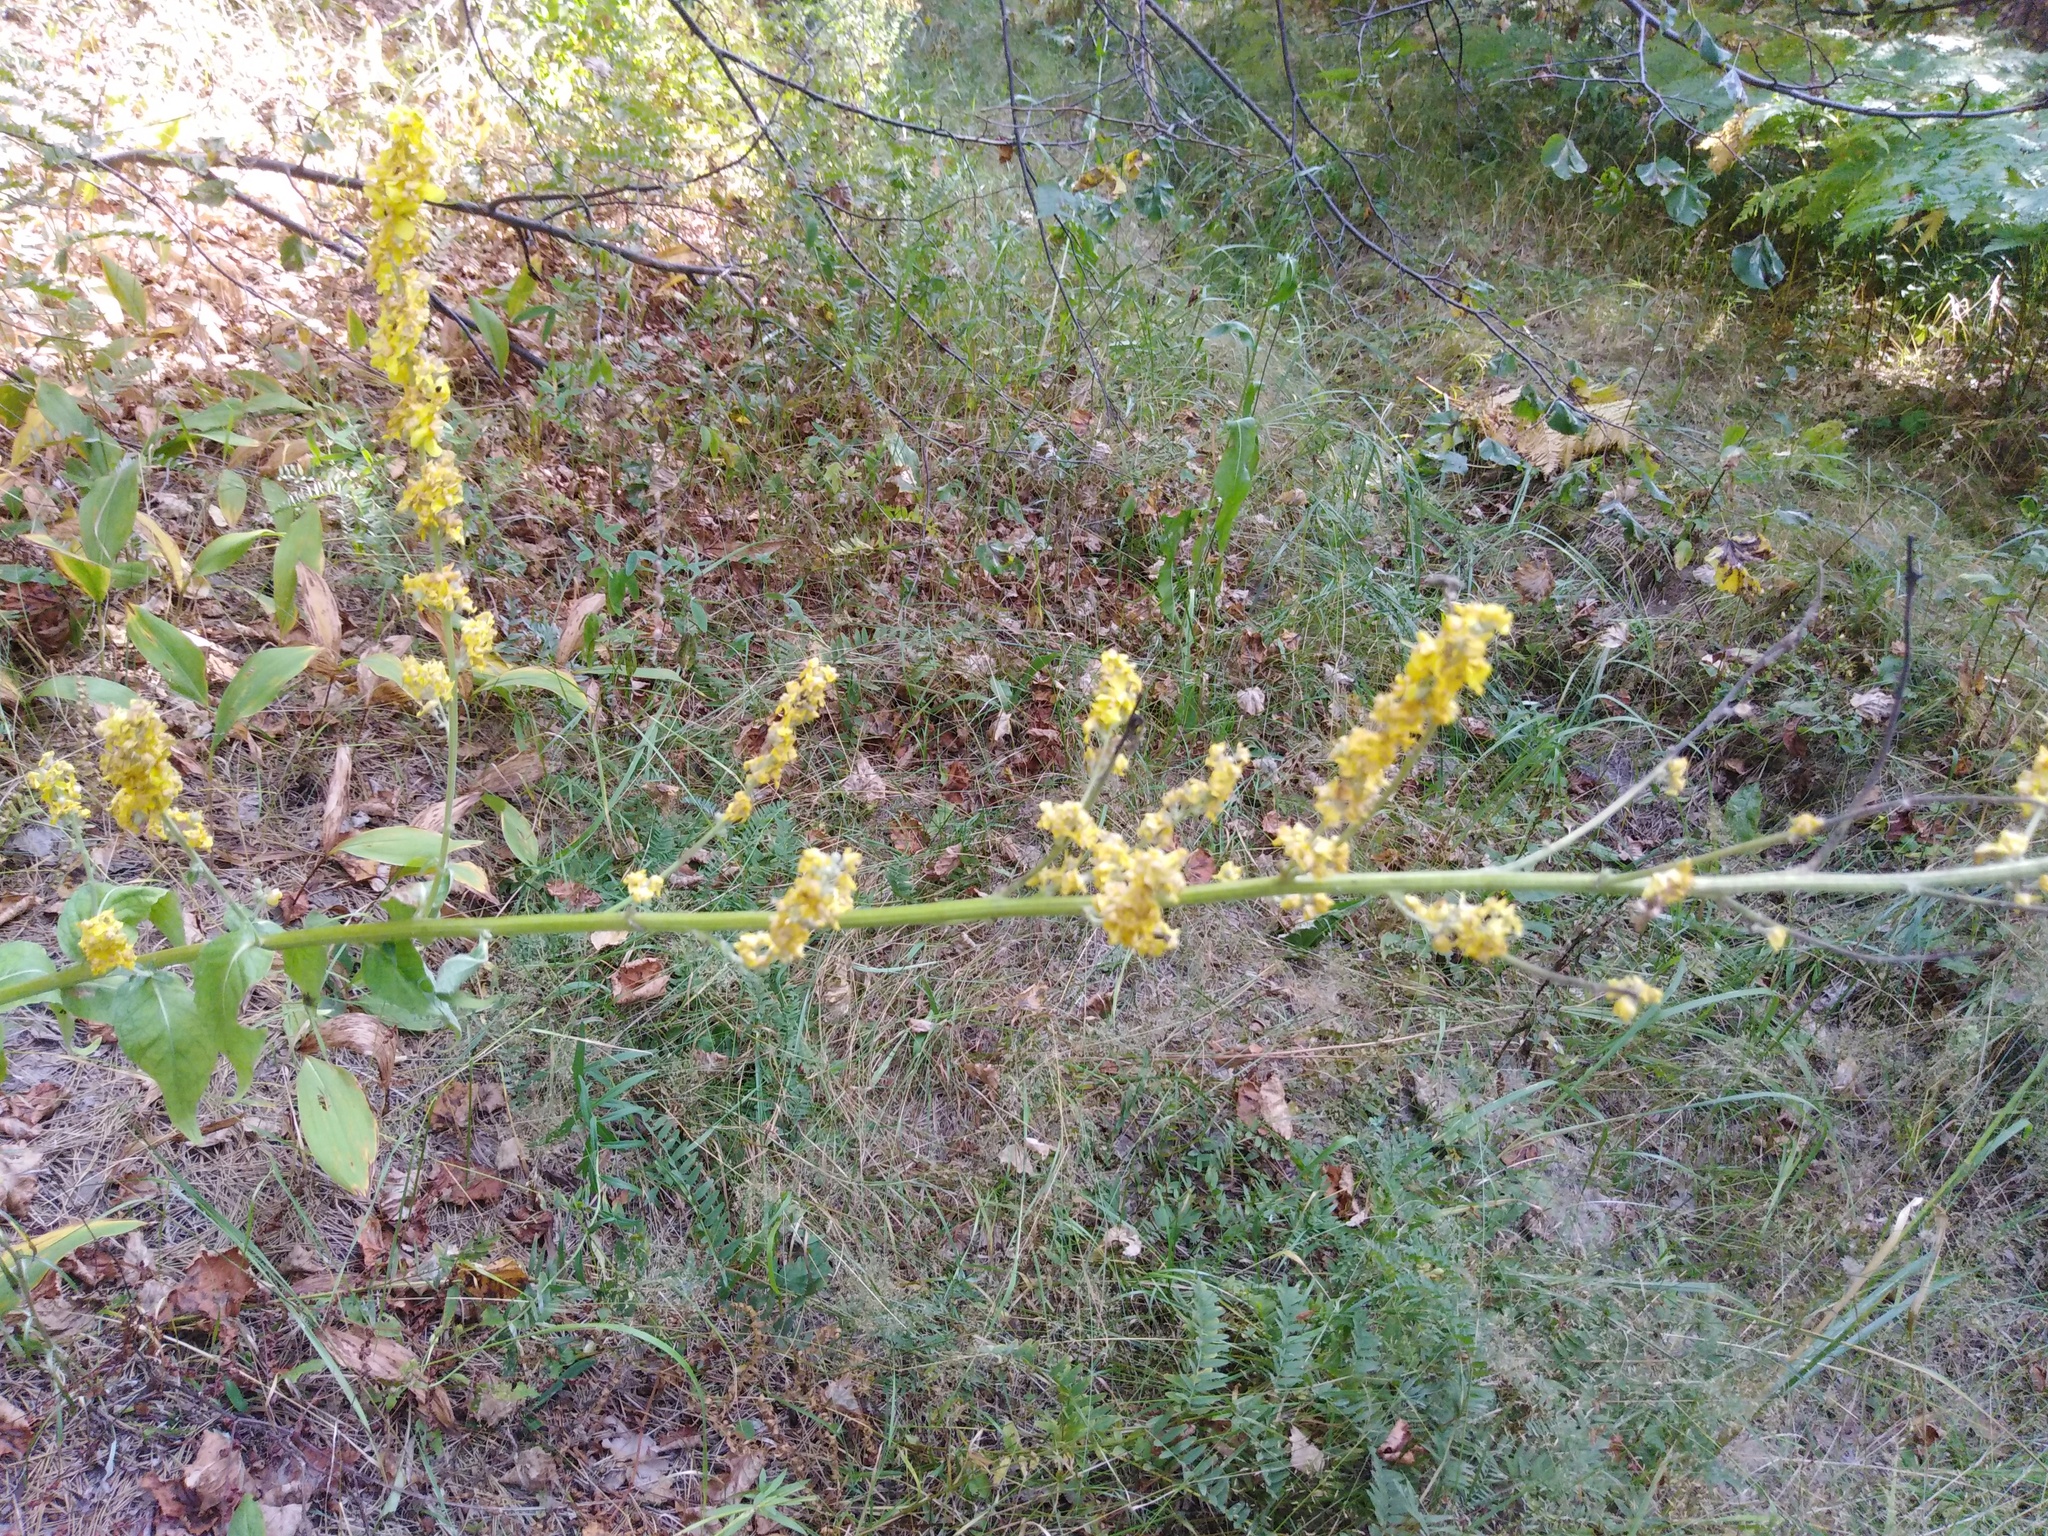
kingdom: Plantae
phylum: Tracheophyta
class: Magnoliopsida
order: Lamiales
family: Scrophulariaceae
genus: Verbascum
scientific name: Verbascum lychnitis
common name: White mullein
